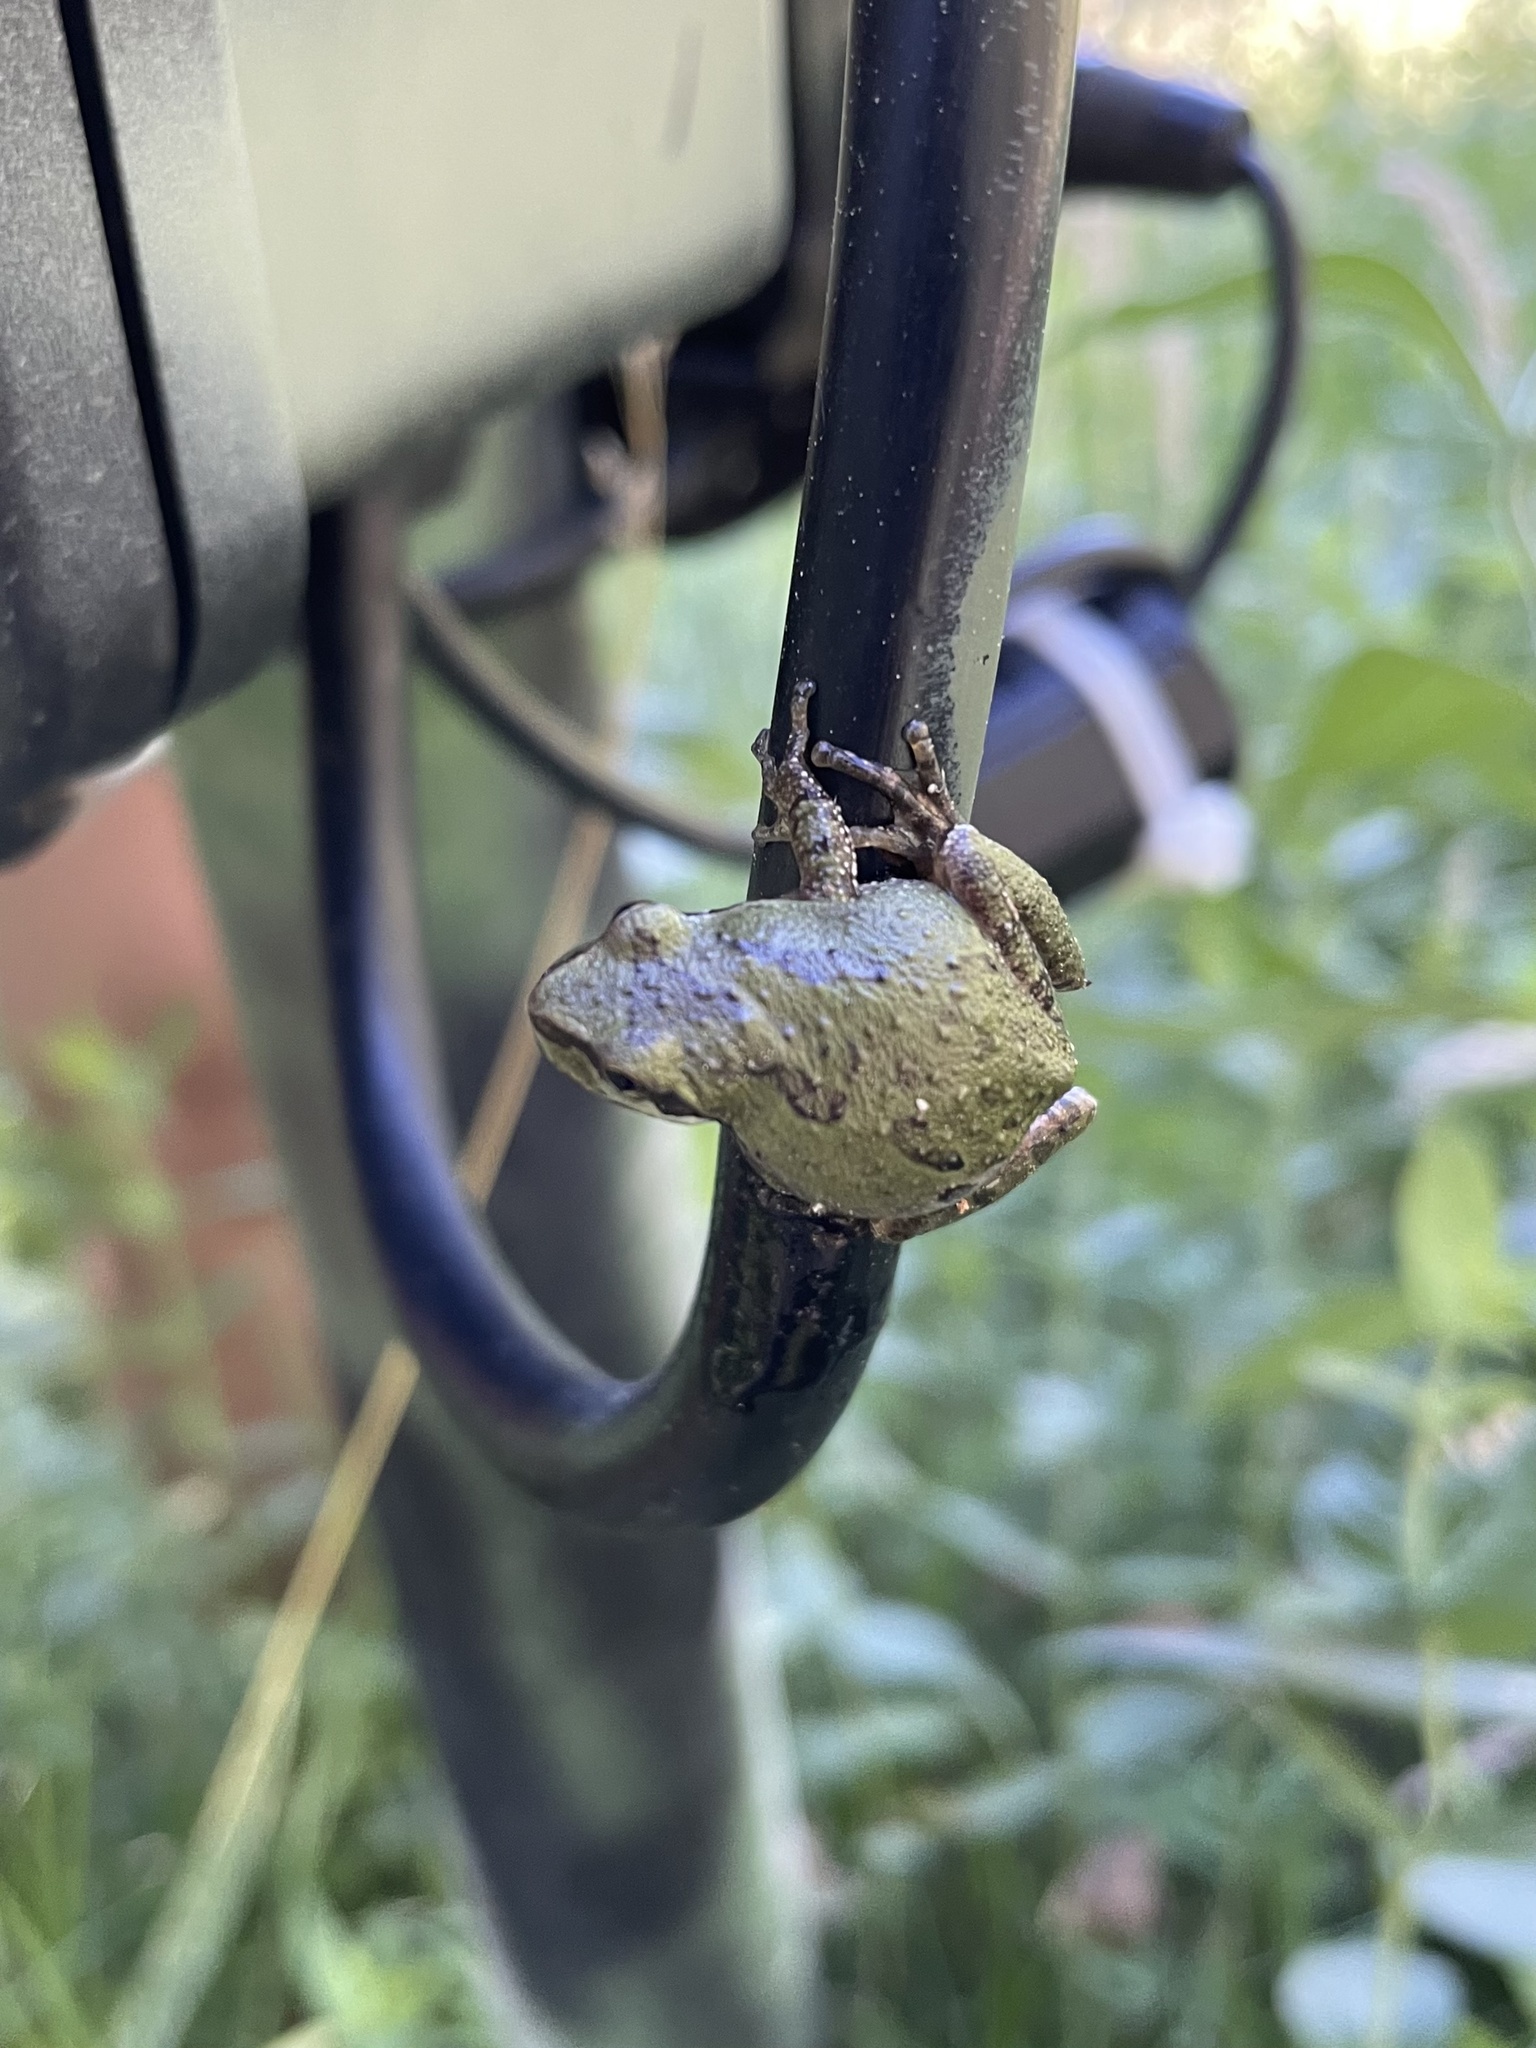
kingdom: Animalia
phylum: Chordata
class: Amphibia
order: Anura
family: Hylidae
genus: Pseudacris
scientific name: Pseudacris regilla
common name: Pacific chorus frog
